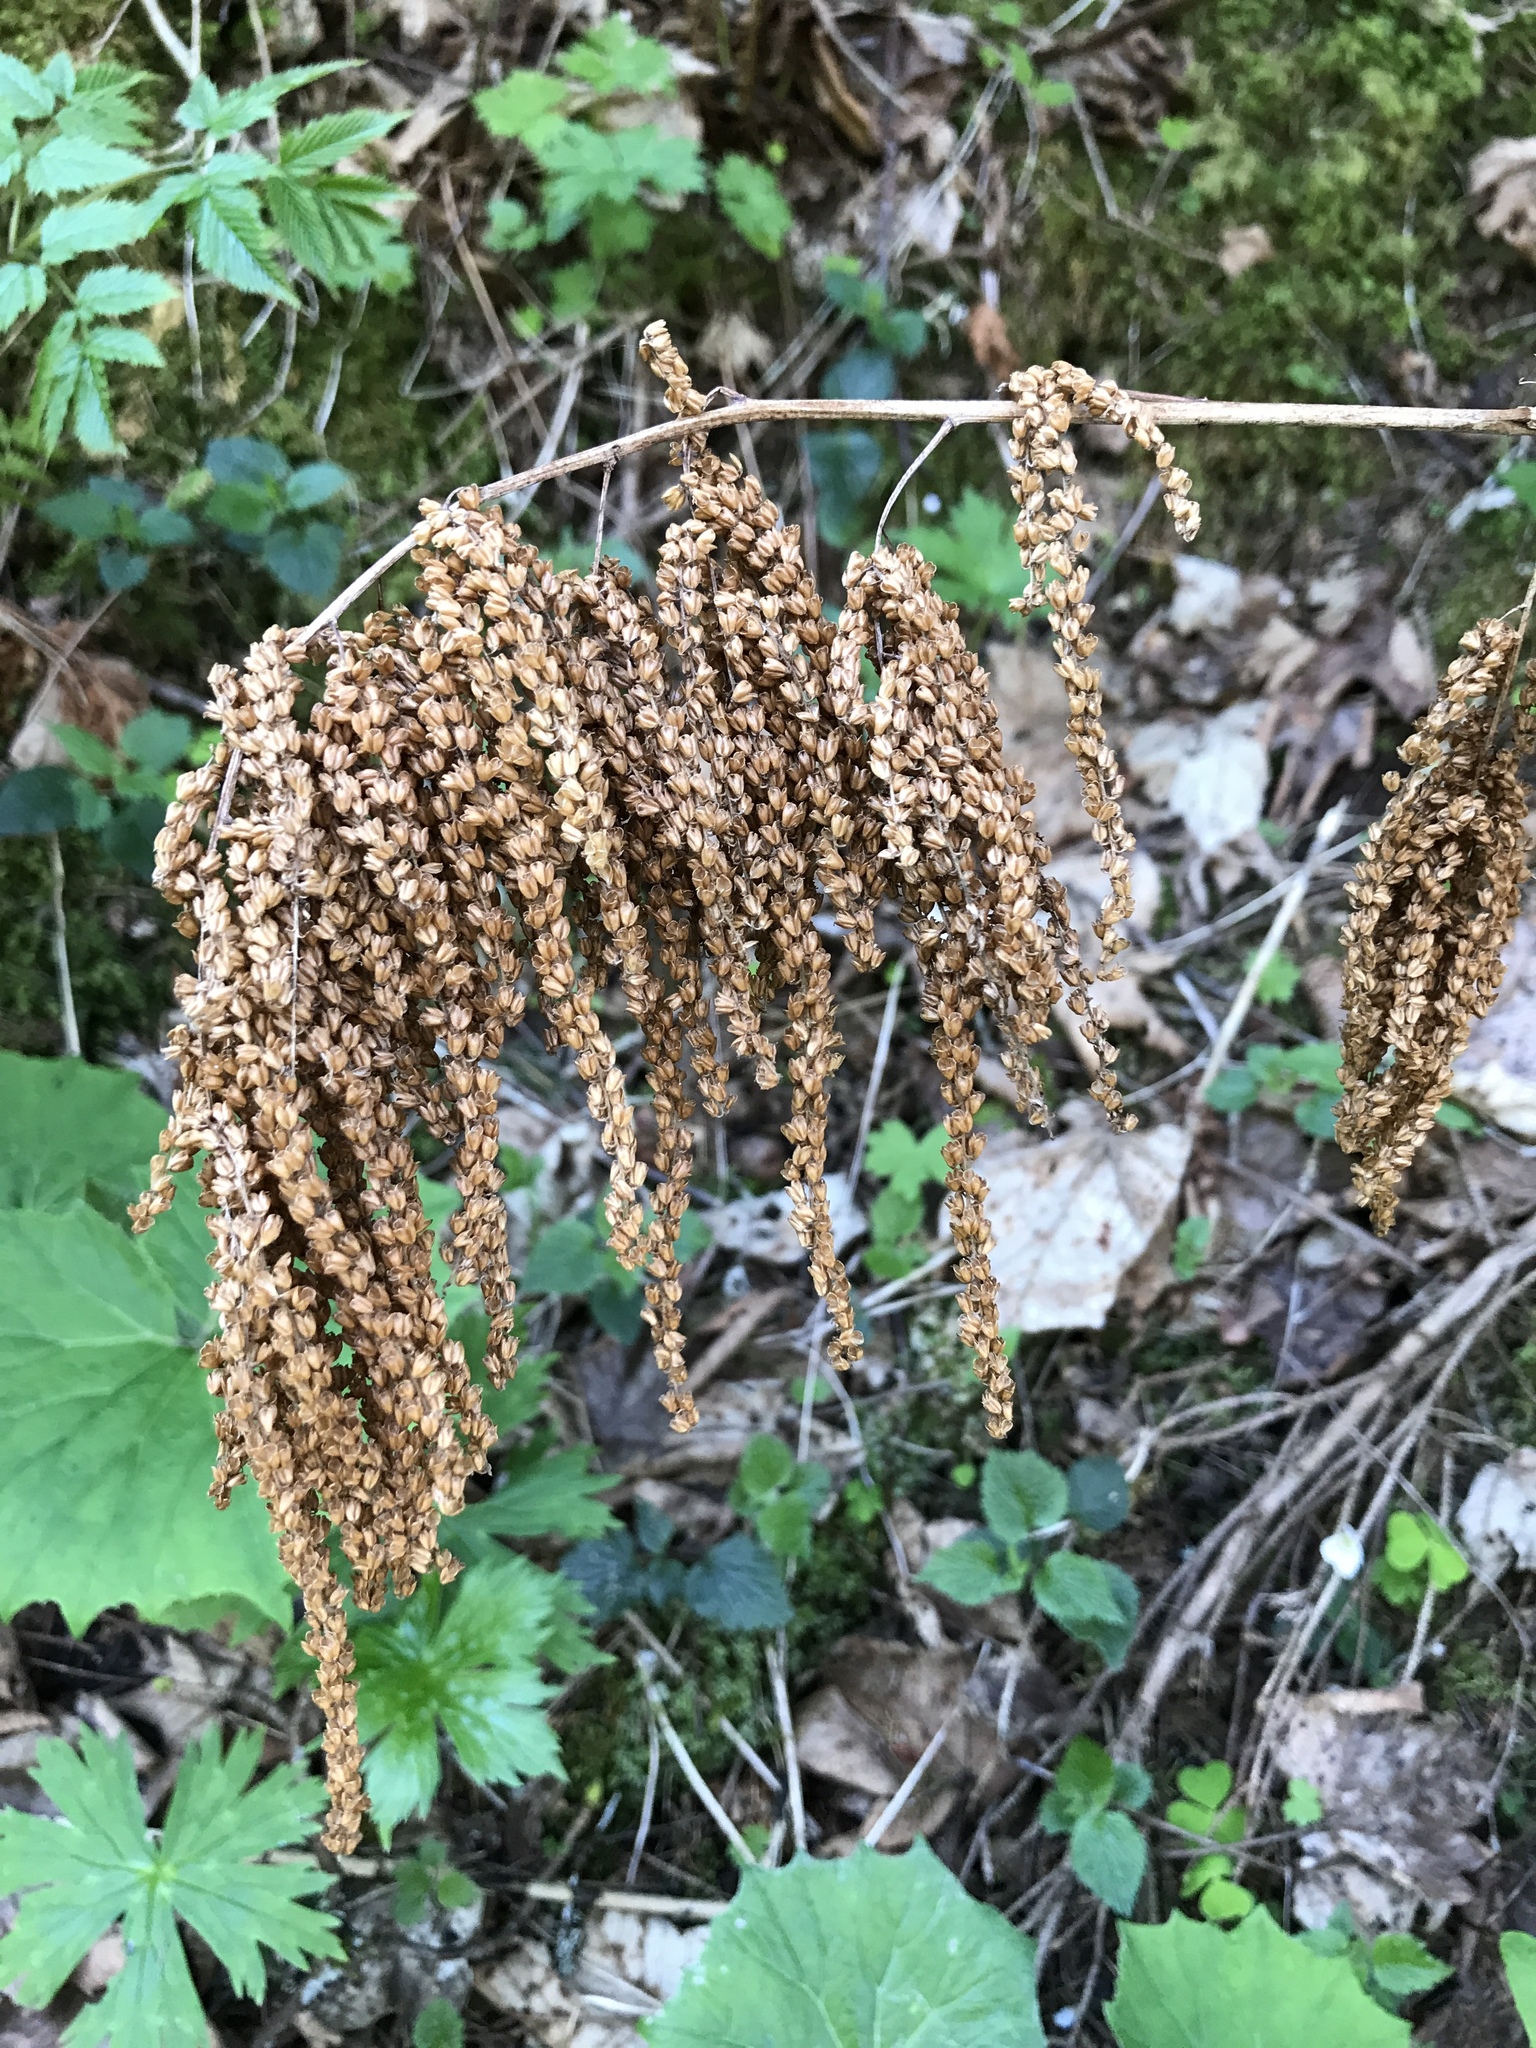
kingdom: Plantae
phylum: Tracheophyta
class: Magnoliopsida
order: Rosales
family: Rosaceae
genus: Aruncus
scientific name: Aruncus dioicus
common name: Buck's-beard
